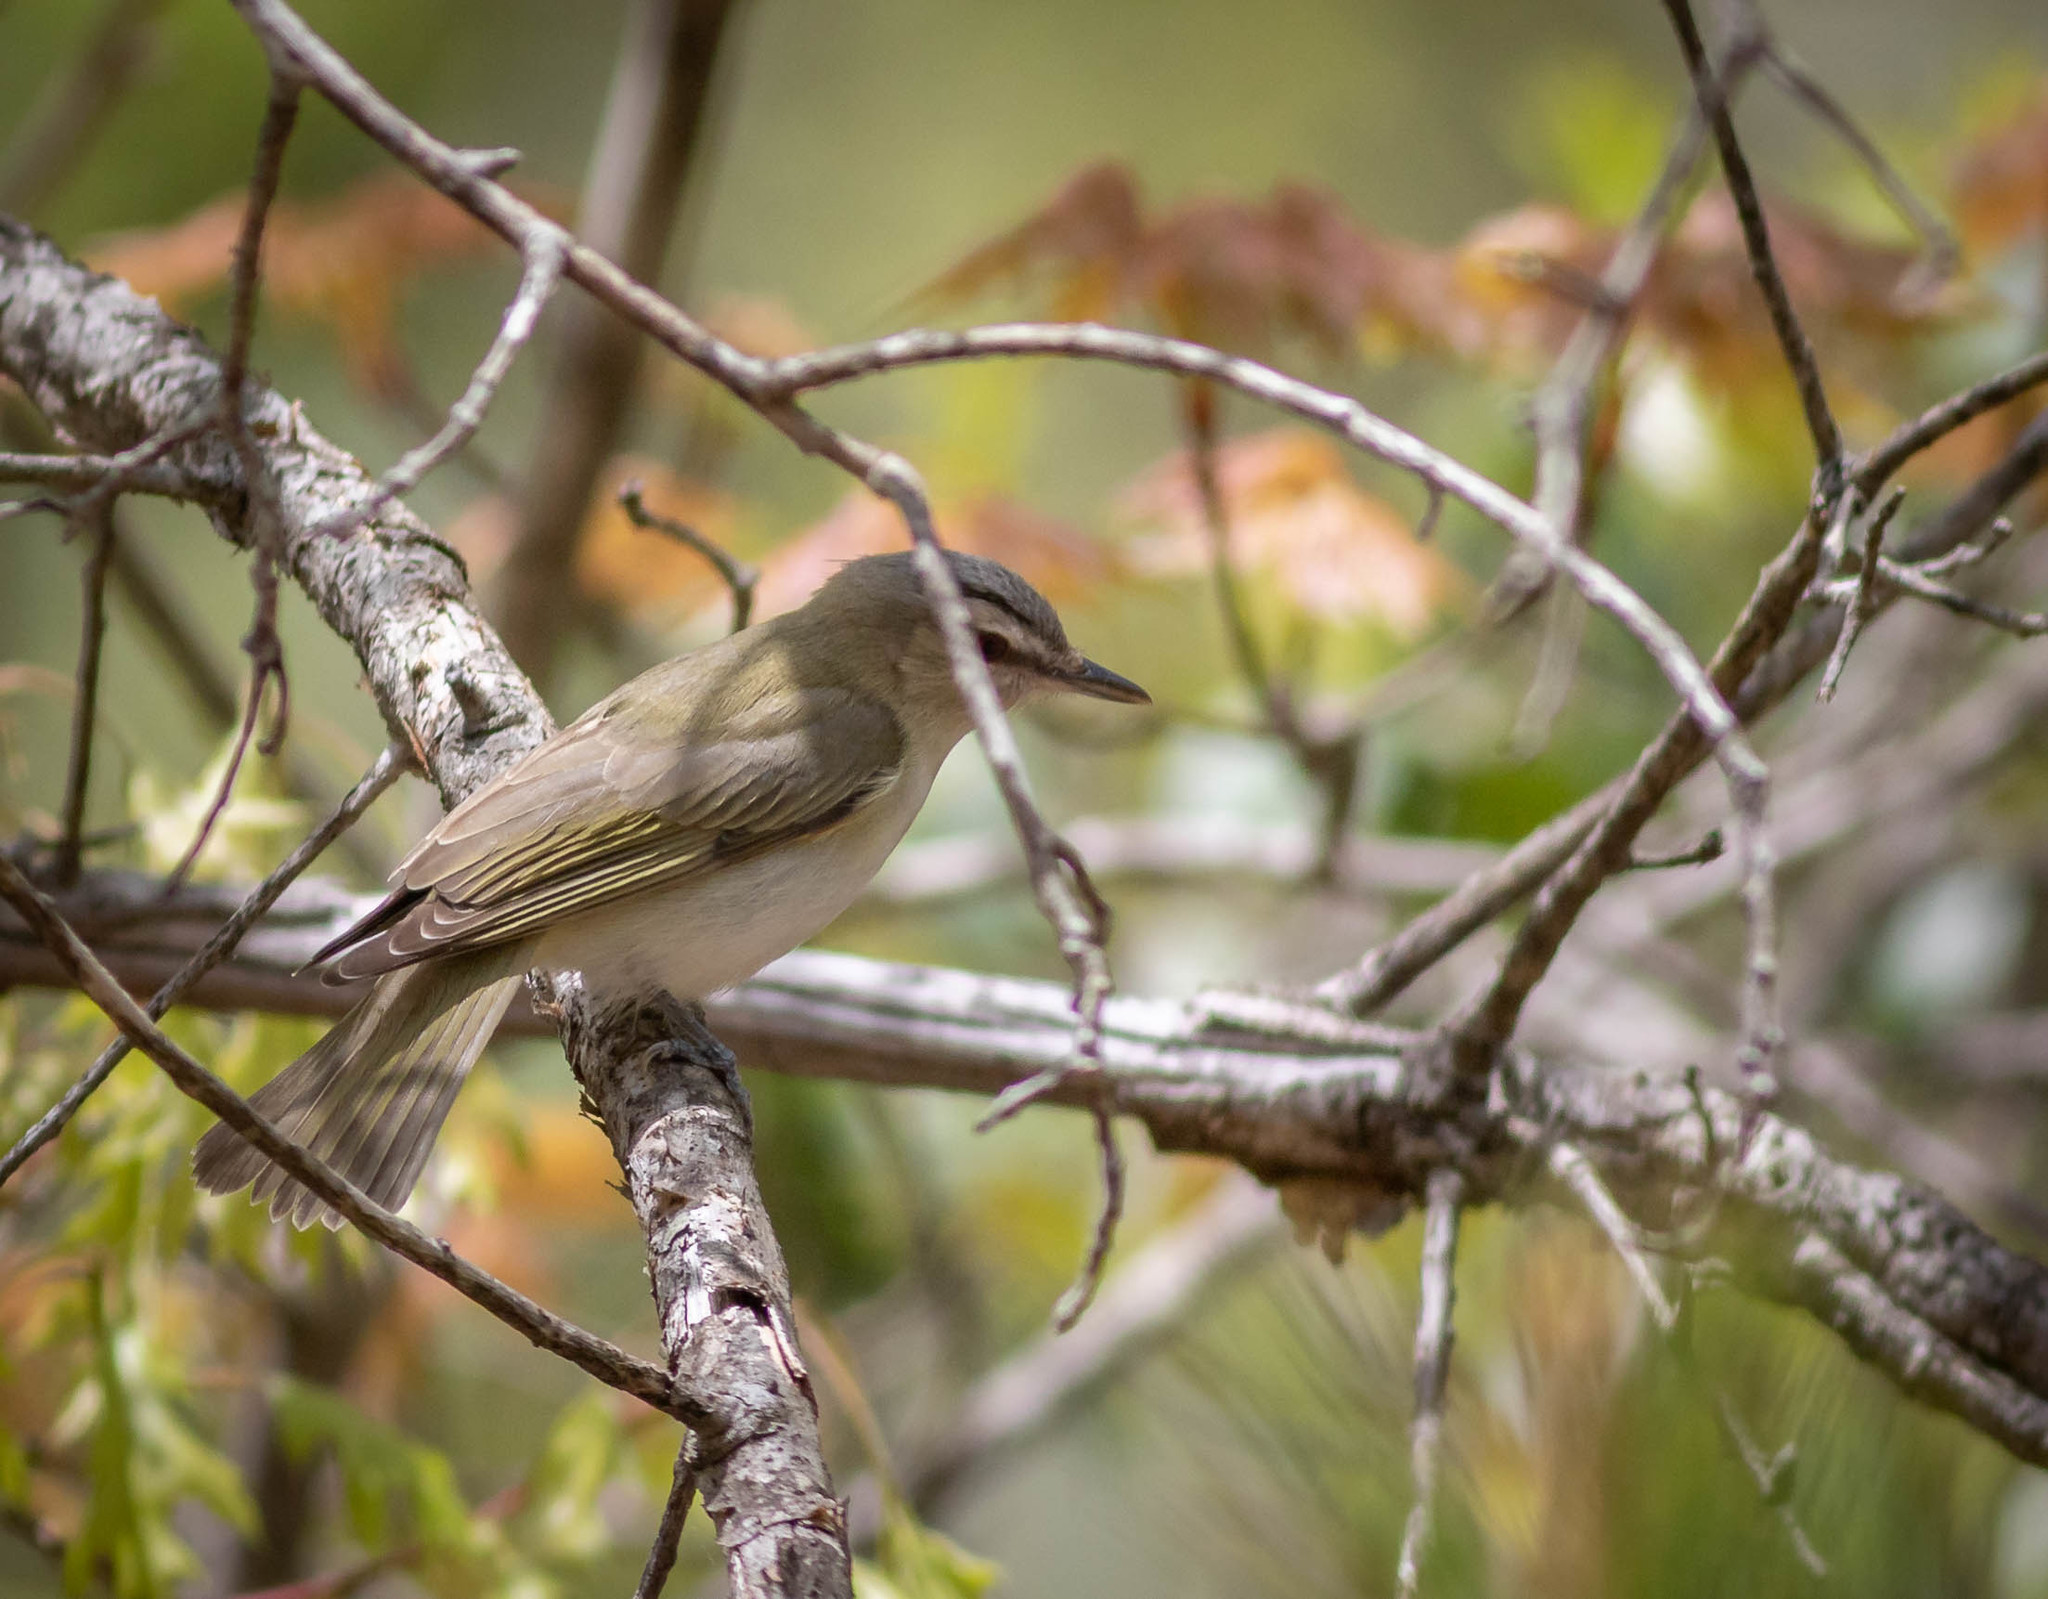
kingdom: Animalia
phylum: Chordata
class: Aves
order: Passeriformes
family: Vireonidae
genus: Vireo
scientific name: Vireo olivaceus
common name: Red-eyed vireo
